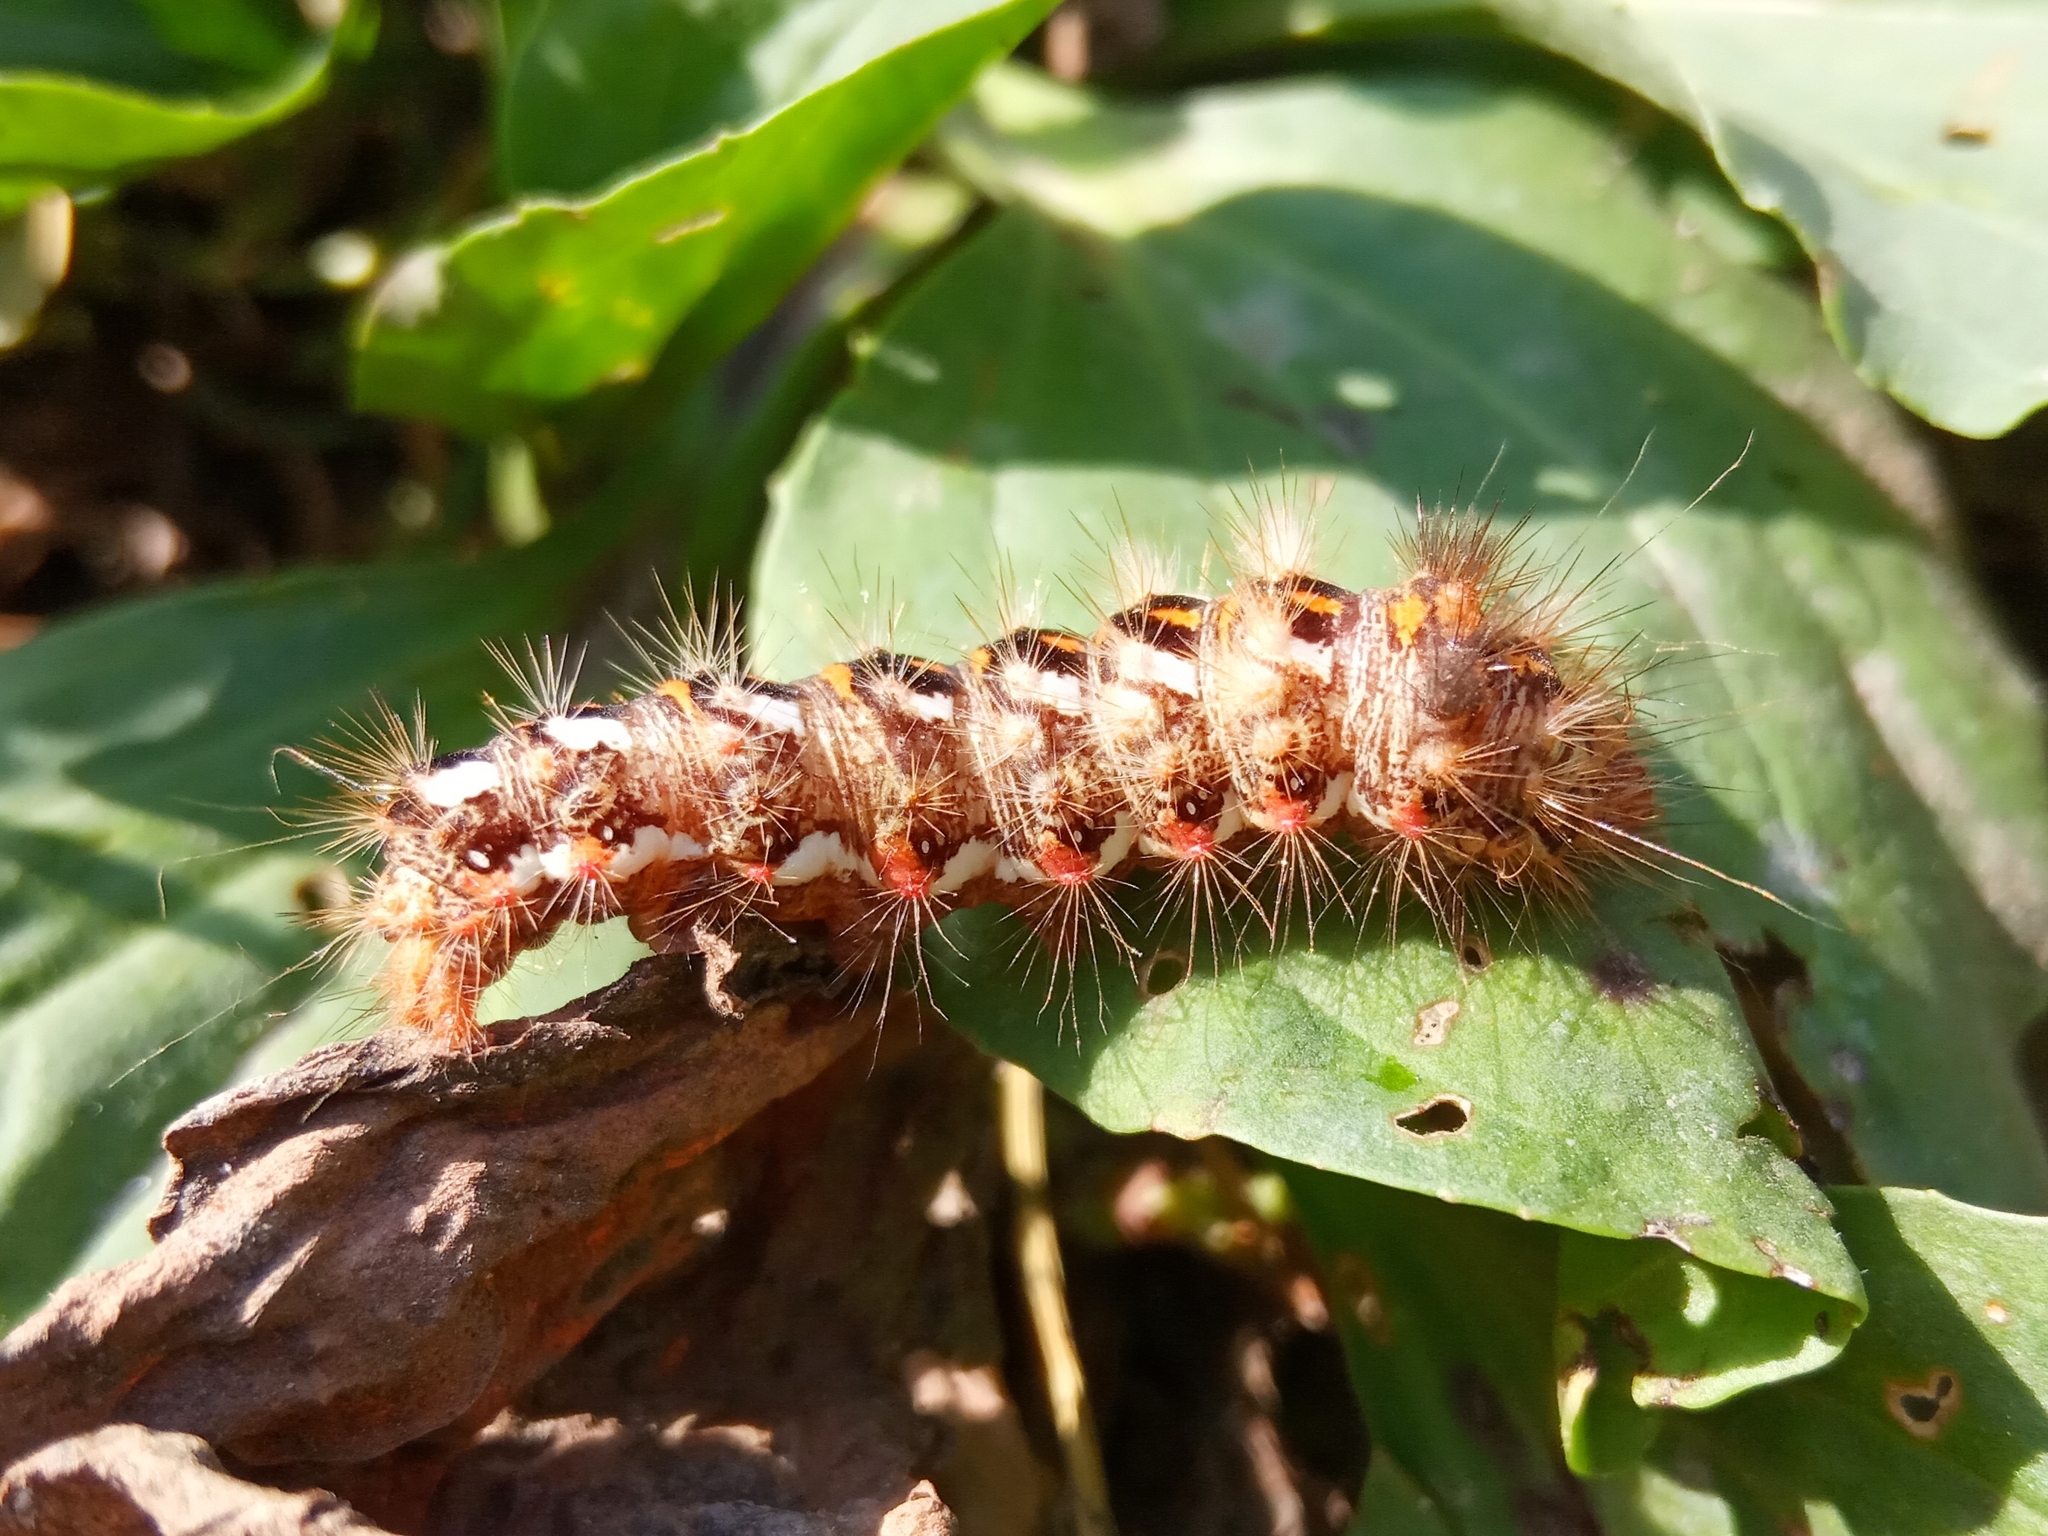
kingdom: Animalia
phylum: Arthropoda
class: Insecta
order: Lepidoptera
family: Noctuidae
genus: Acronicta
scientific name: Acronicta rumicis
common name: Knot grass
